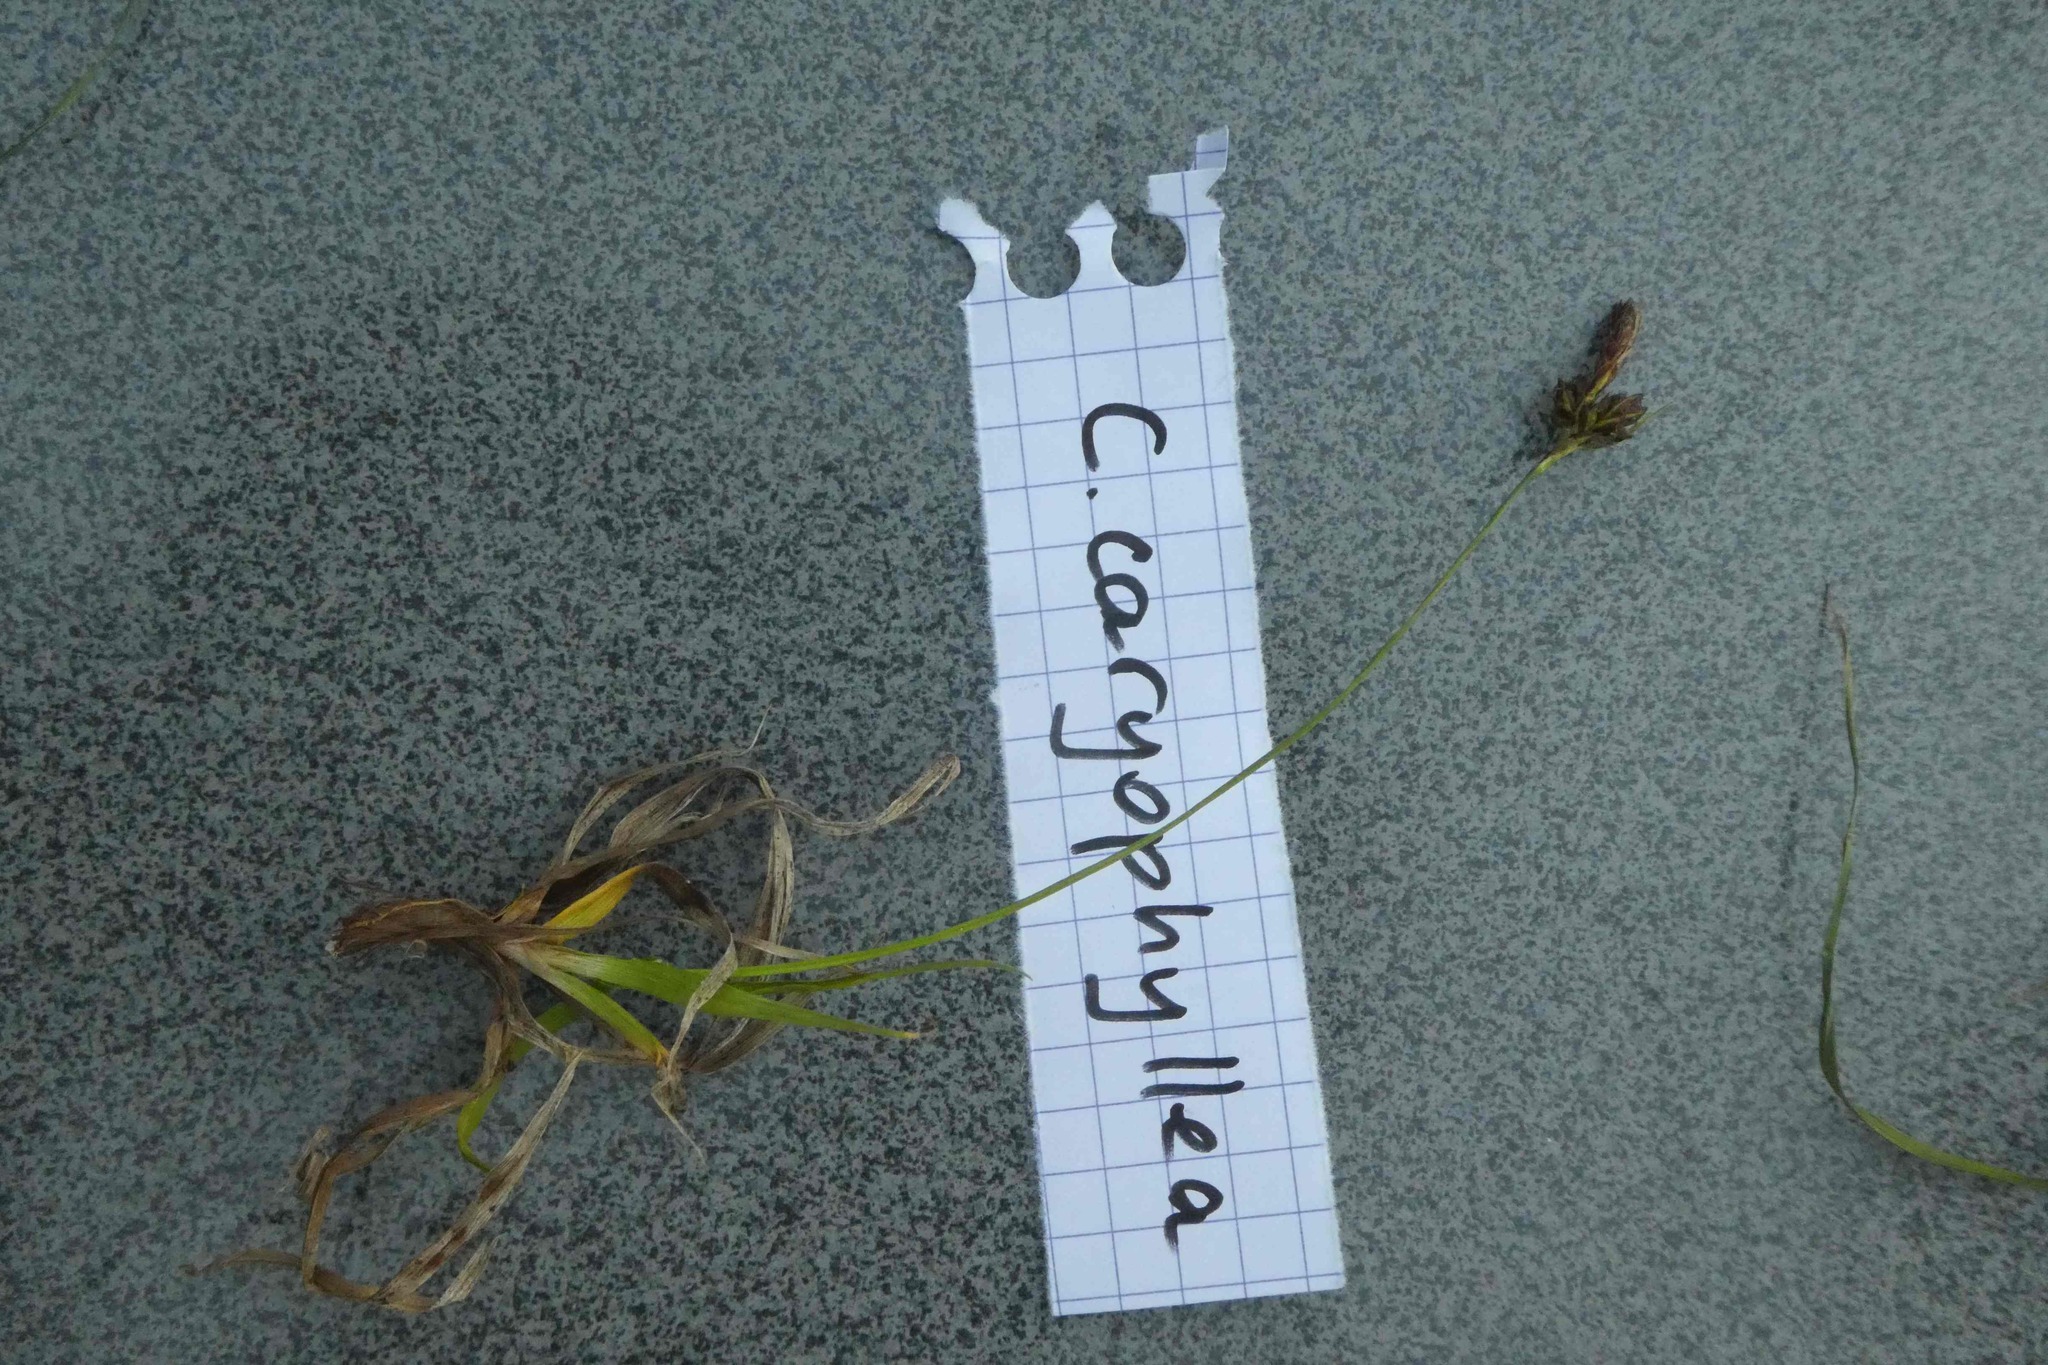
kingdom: Plantae
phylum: Tracheophyta
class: Liliopsida
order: Poales
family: Cyperaceae
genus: Carex
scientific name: Carex caryophyllea
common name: Spring sedge
